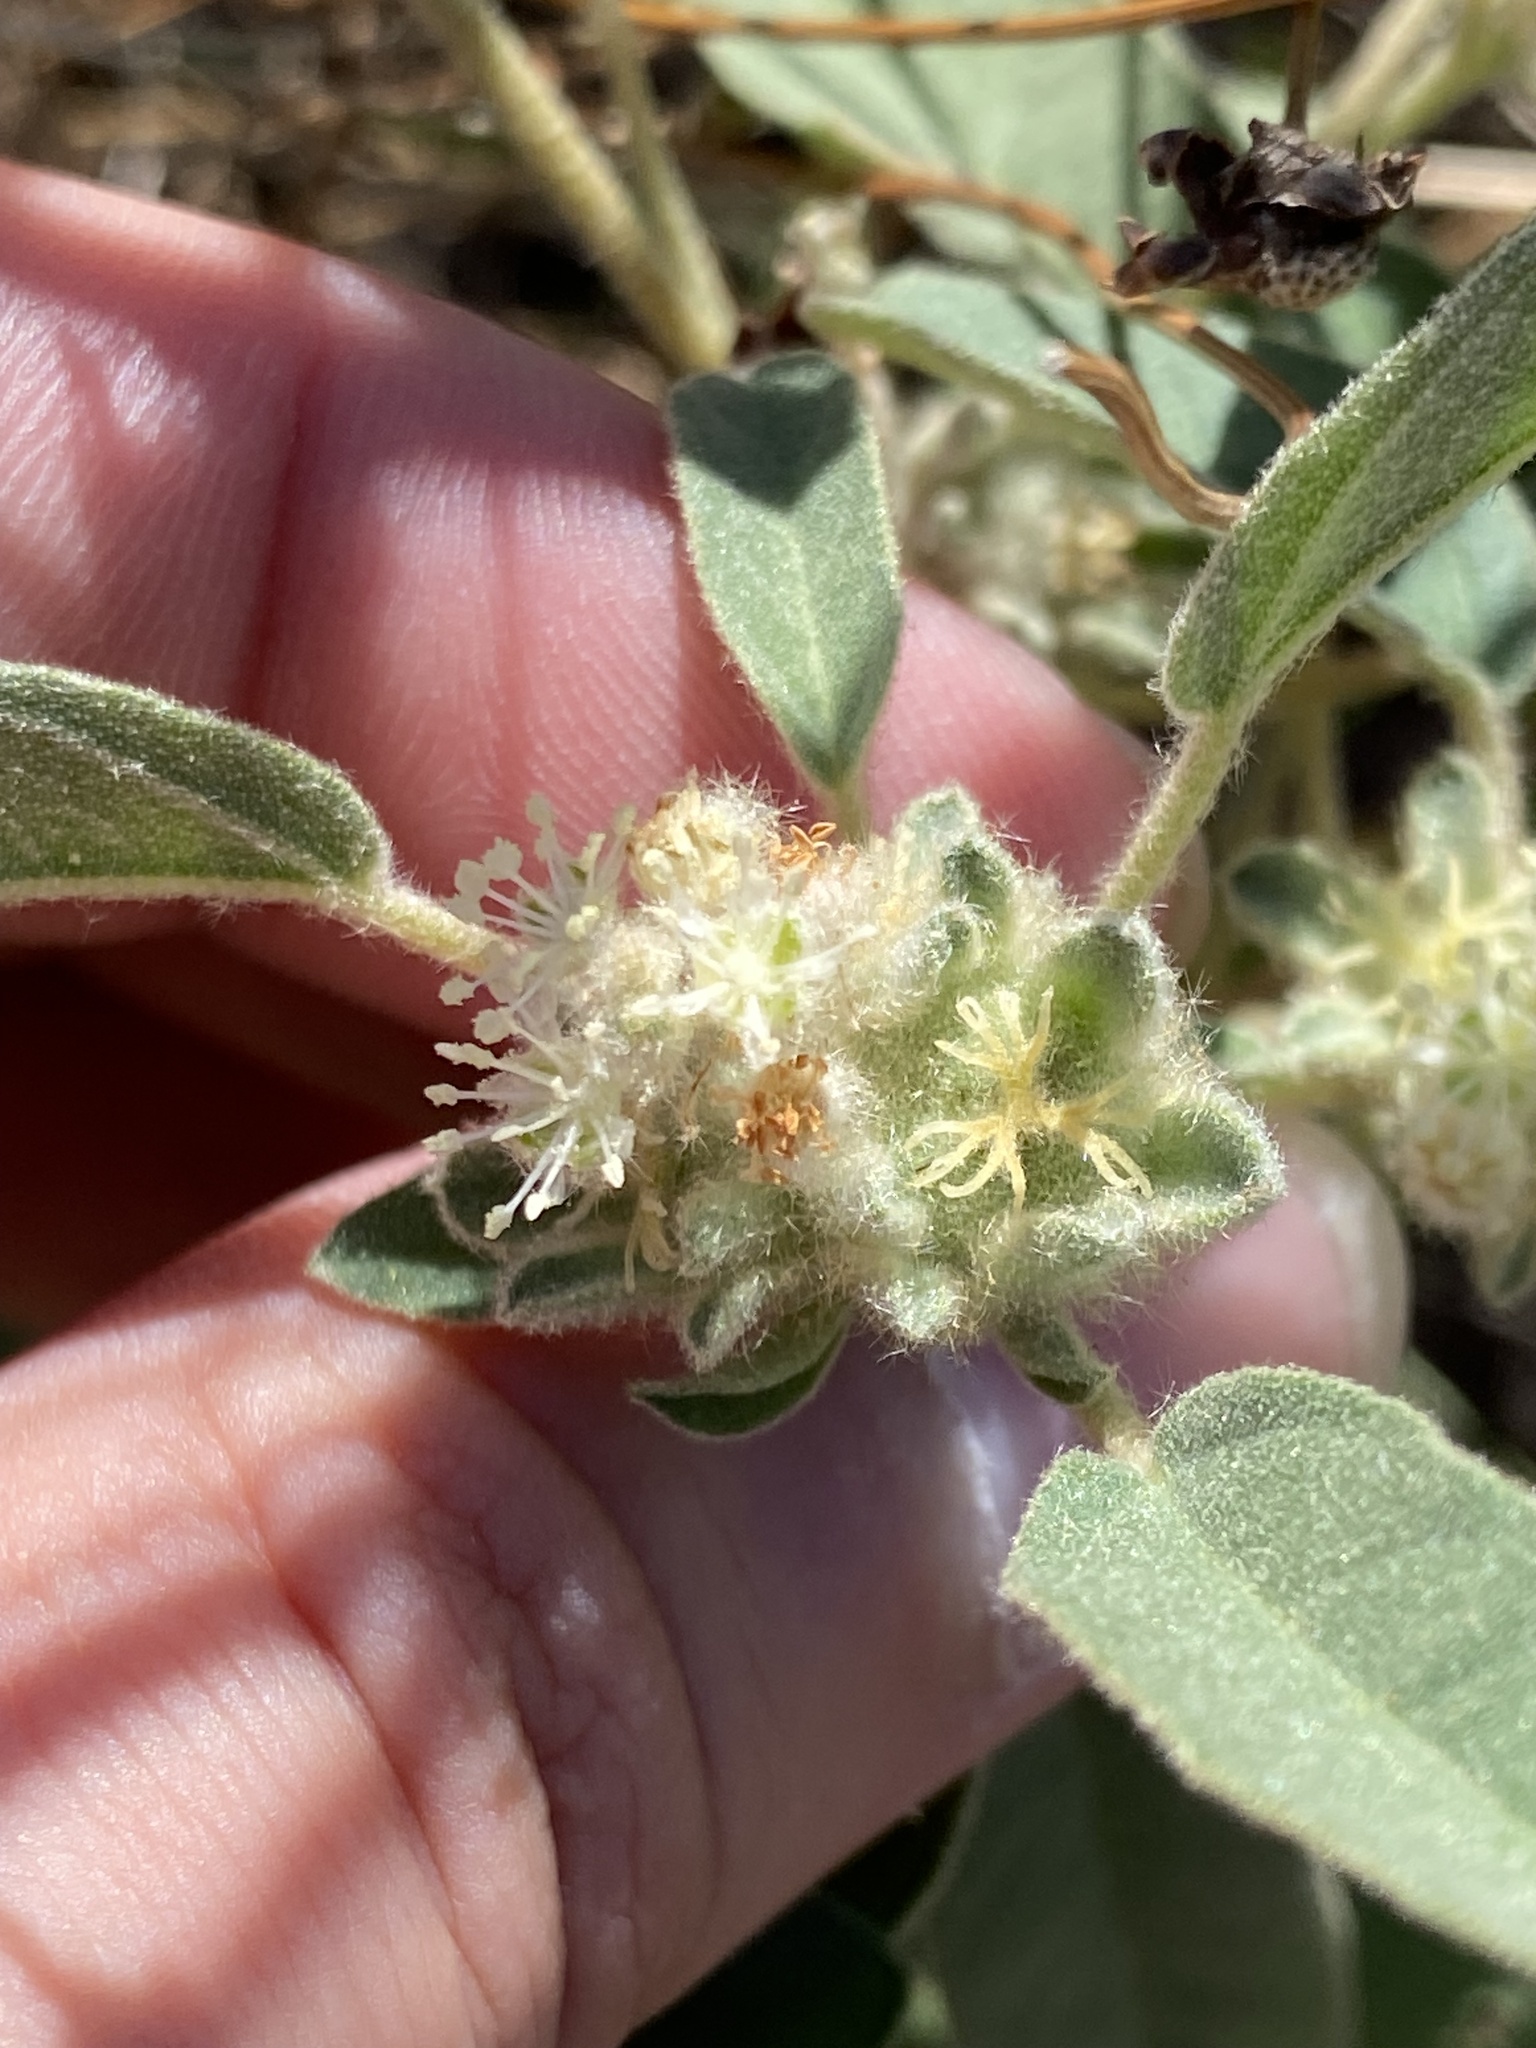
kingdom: Plantae
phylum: Tracheophyta
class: Magnoliopsida
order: Malpighiales
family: Euphorbiaceae
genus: Croton
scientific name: Croton capitatus
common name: Woolly croton
